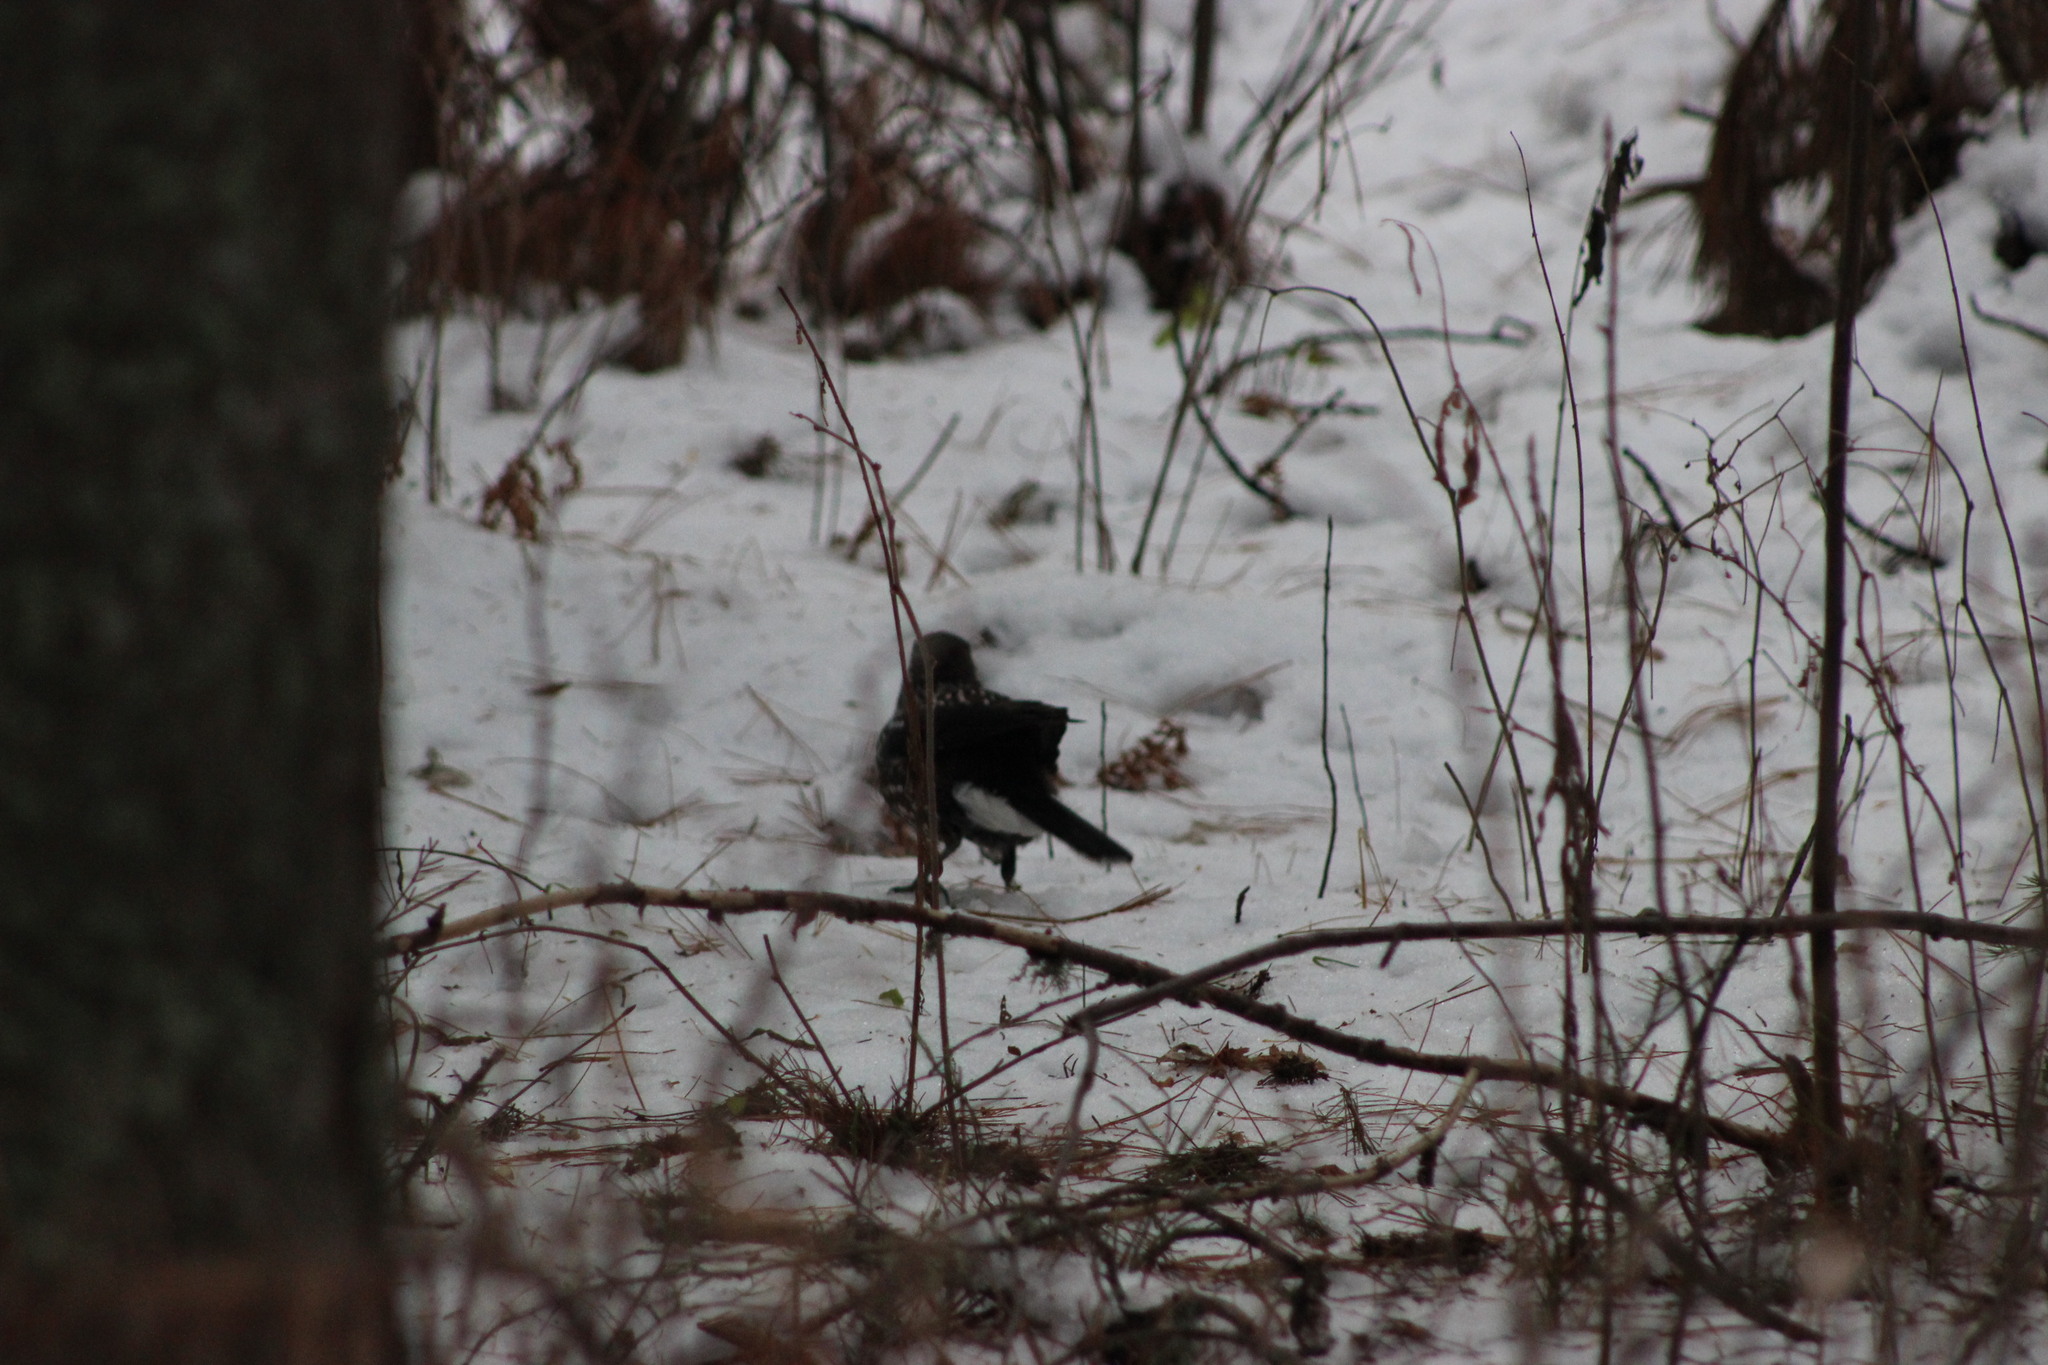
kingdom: Animalia
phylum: Chordata
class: Aves
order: Passeriformes
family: Corvidae
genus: Nucifraga
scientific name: Nucifraga caryocatactes
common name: Spotted nutcracker
